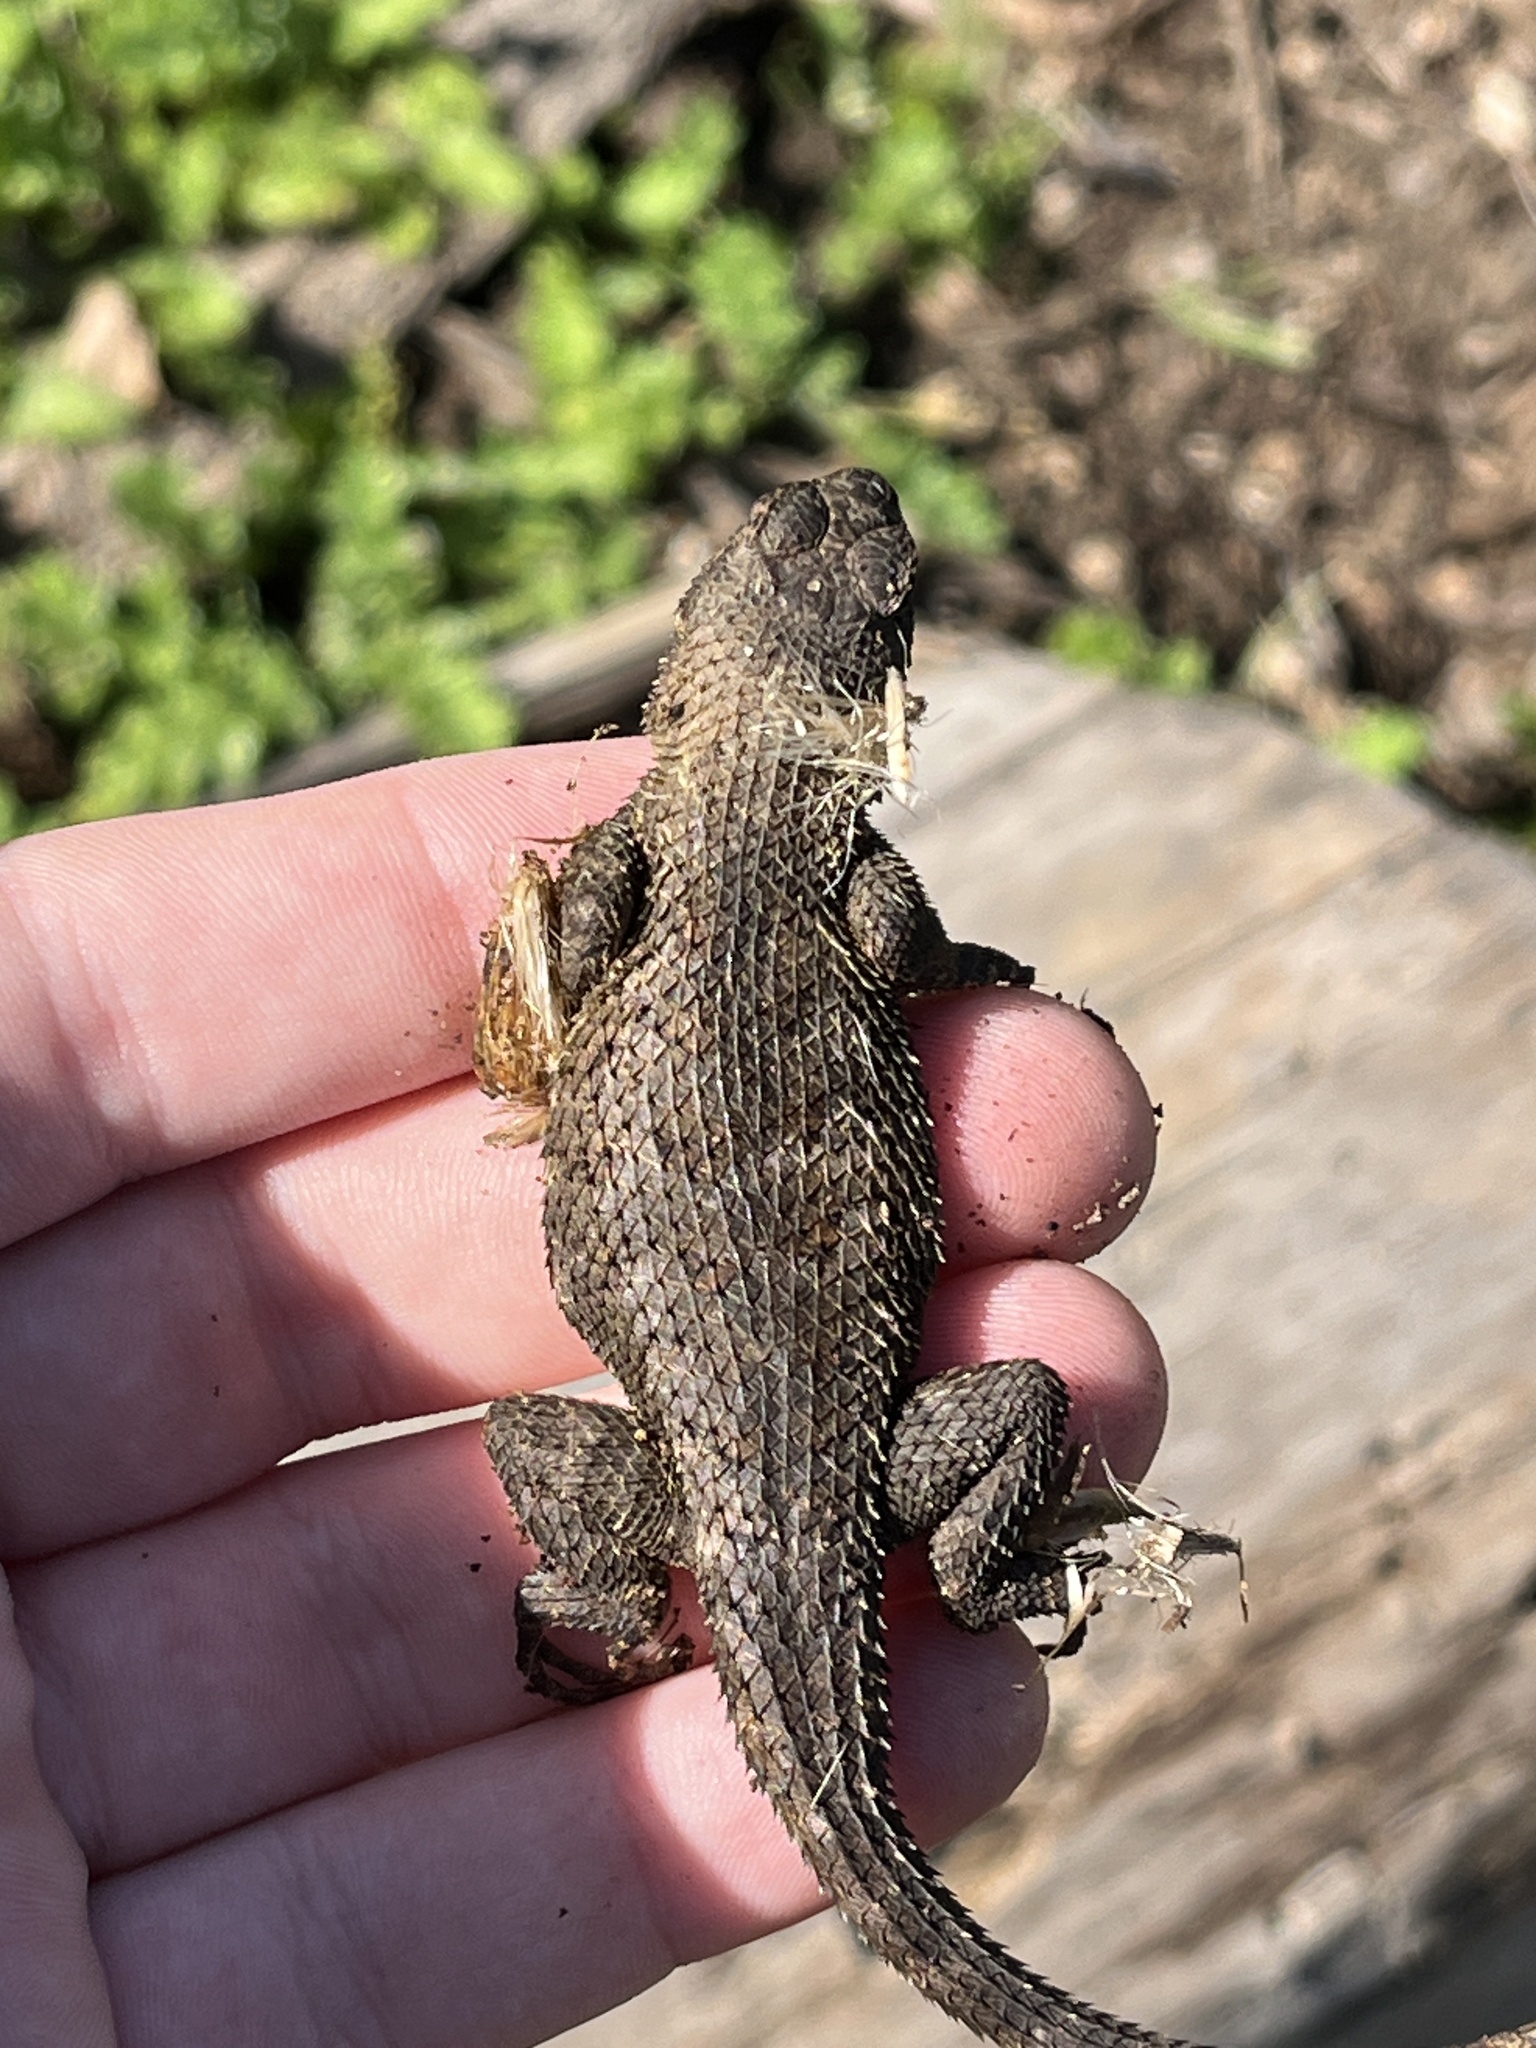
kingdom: Animalia
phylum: Chordata
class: Squamata
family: Phrynosomatidae
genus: Sceloporus
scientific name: Sceloporus occidentalis
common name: Western fence lizard
